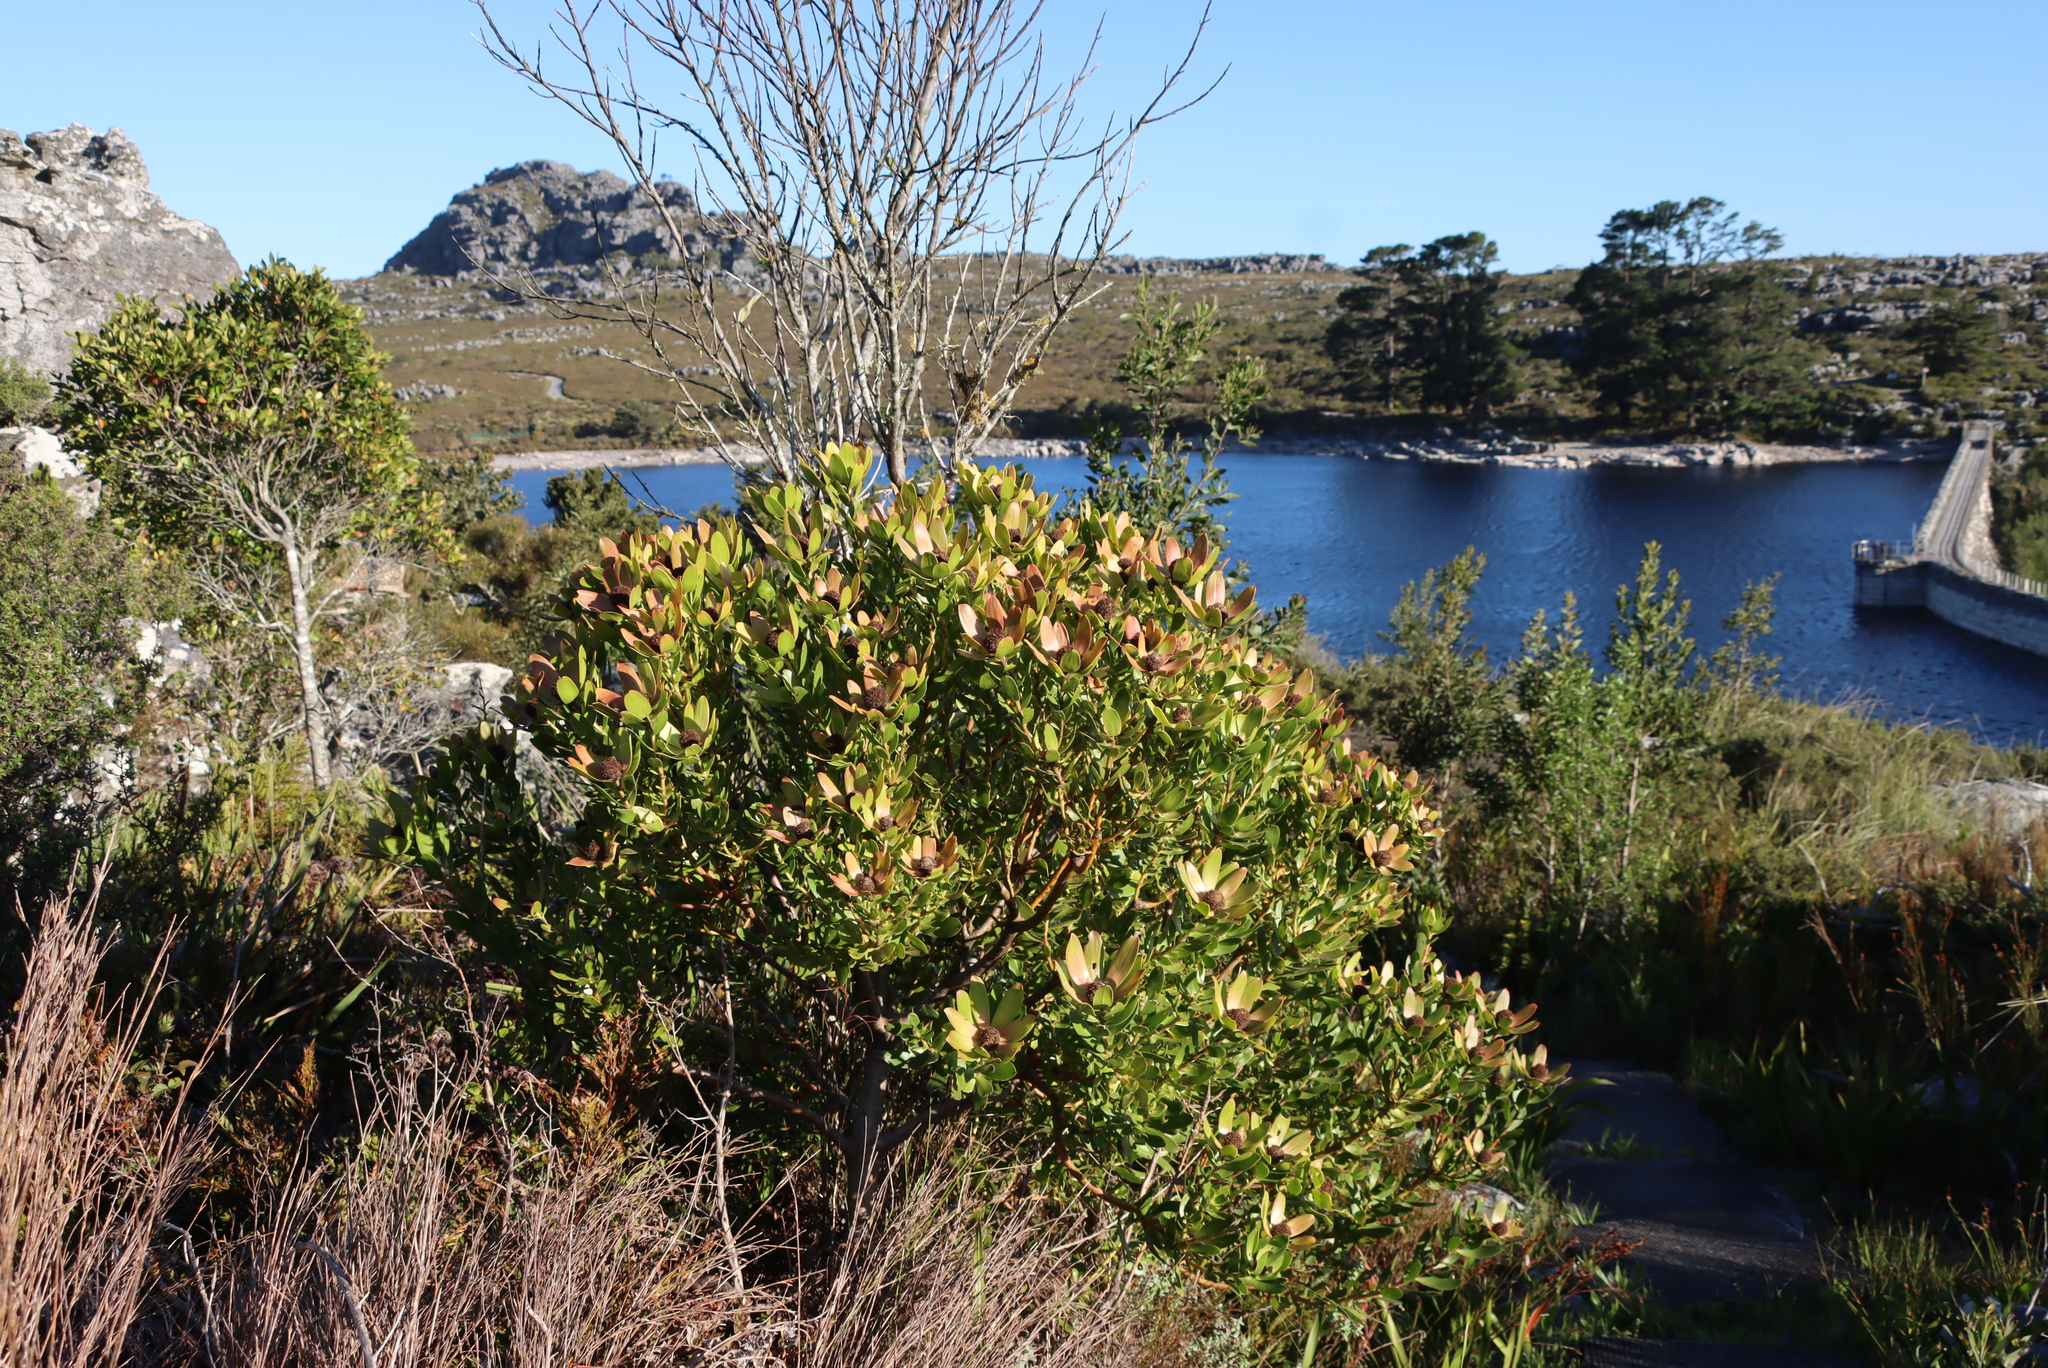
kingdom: Plantae
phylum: Tracheophyta
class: Magnoliopsida
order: Proteales
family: Proteaceae
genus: Leucadendron
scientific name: Leucadendron strobilinum
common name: Mountain rose
